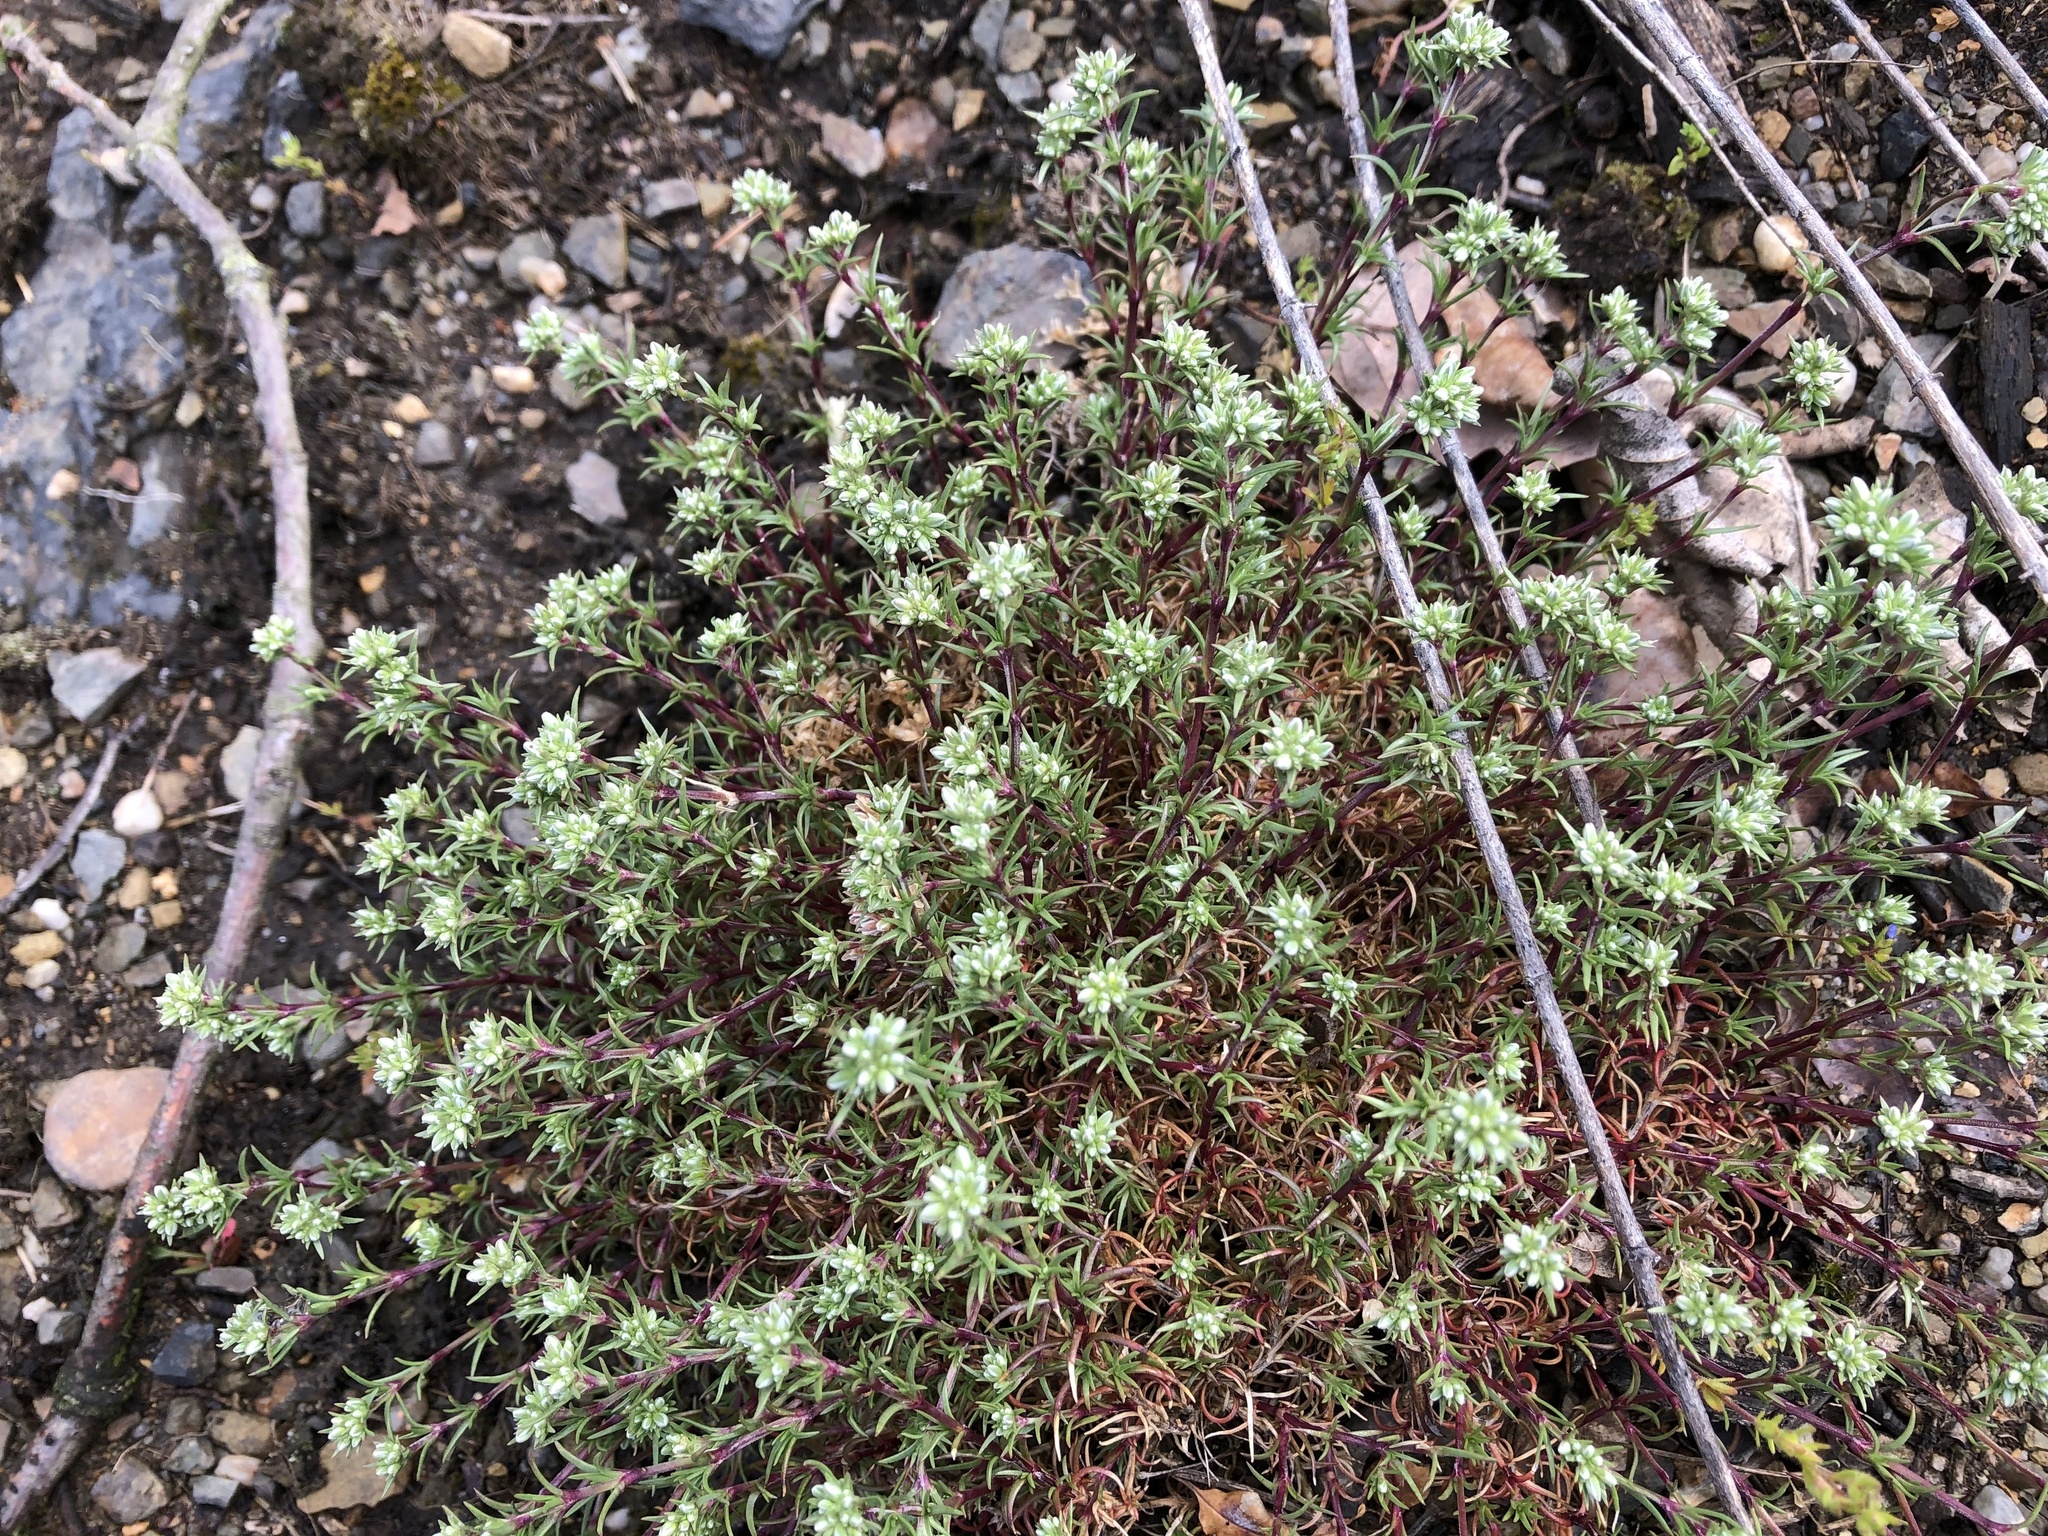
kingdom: Plantae
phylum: Tracheophyta
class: Magnoliopsida
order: Caryophyllales
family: Caryophyllaceae
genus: Scleranthus
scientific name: Scleranthus perennis
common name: Perennial knawel
